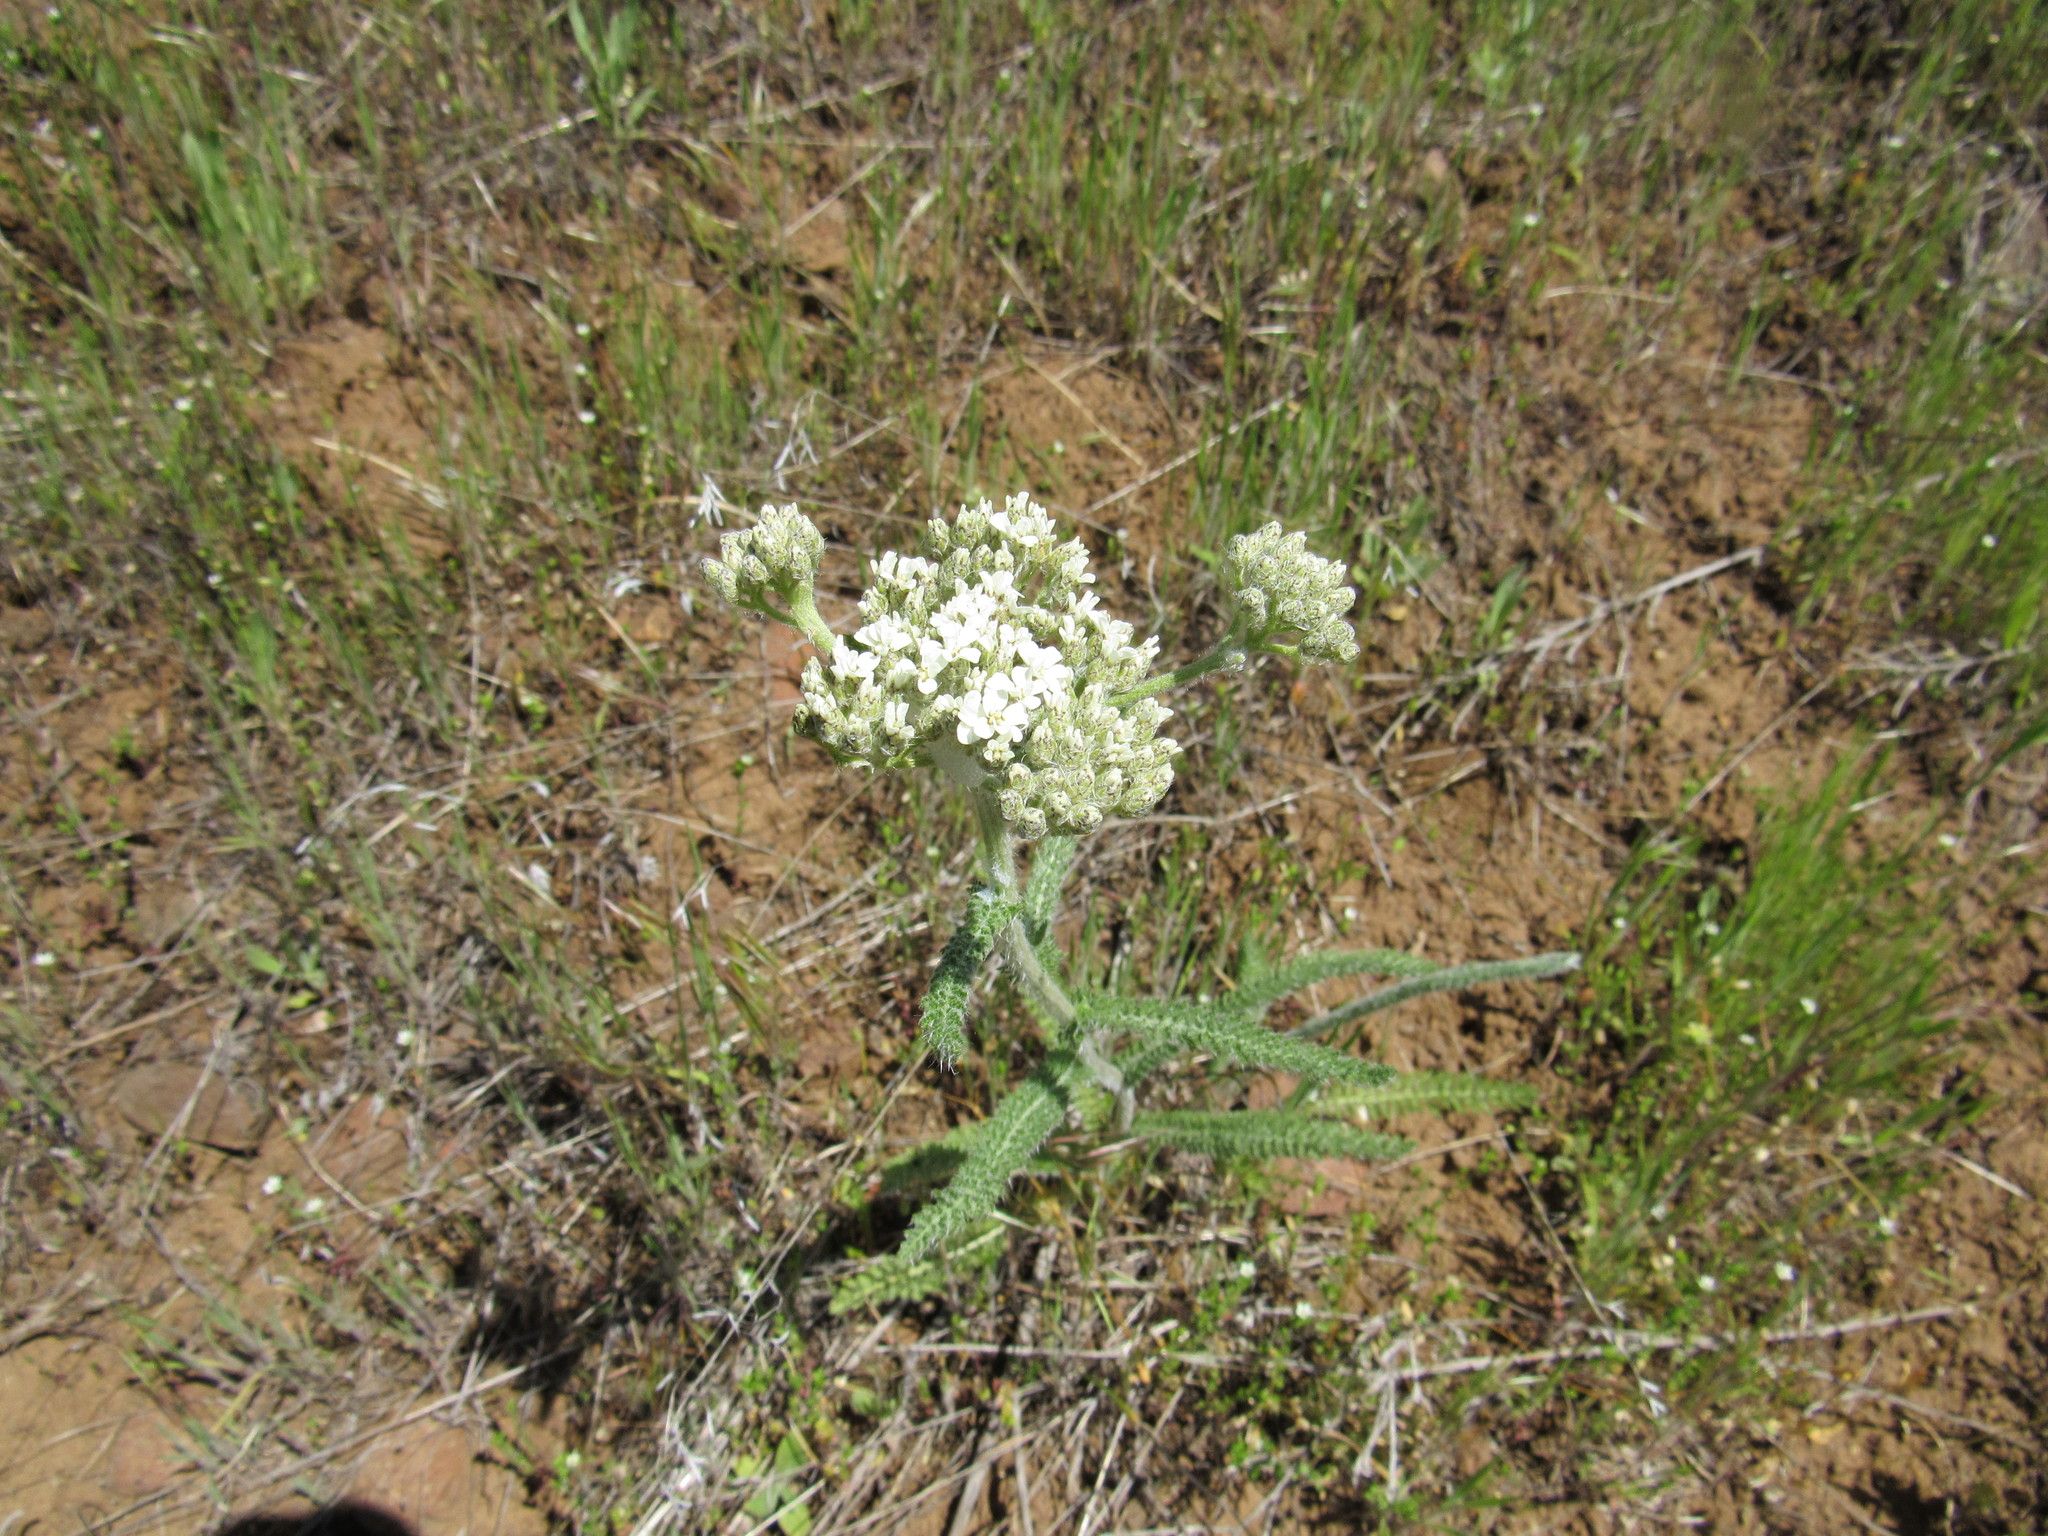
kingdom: Plantae
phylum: Tracheophyta
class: Magnoliopsida
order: Asterales
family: Asteraceae
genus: Achillea
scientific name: Achillea millefolium
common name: Yarrow
